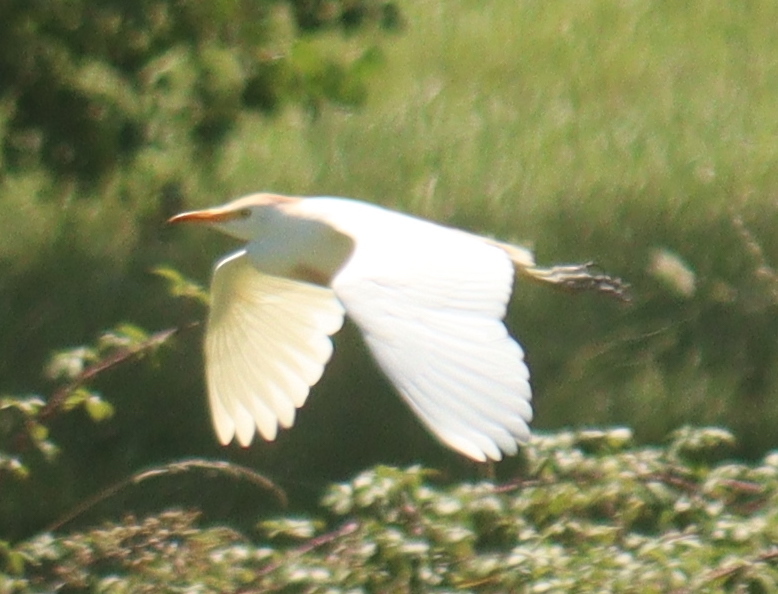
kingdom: Animalia
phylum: Chordata
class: Aves
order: Pelecaniformes
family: Ardeidae
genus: Bubulcus
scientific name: Bubulcus ibis
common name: Cattle egret
